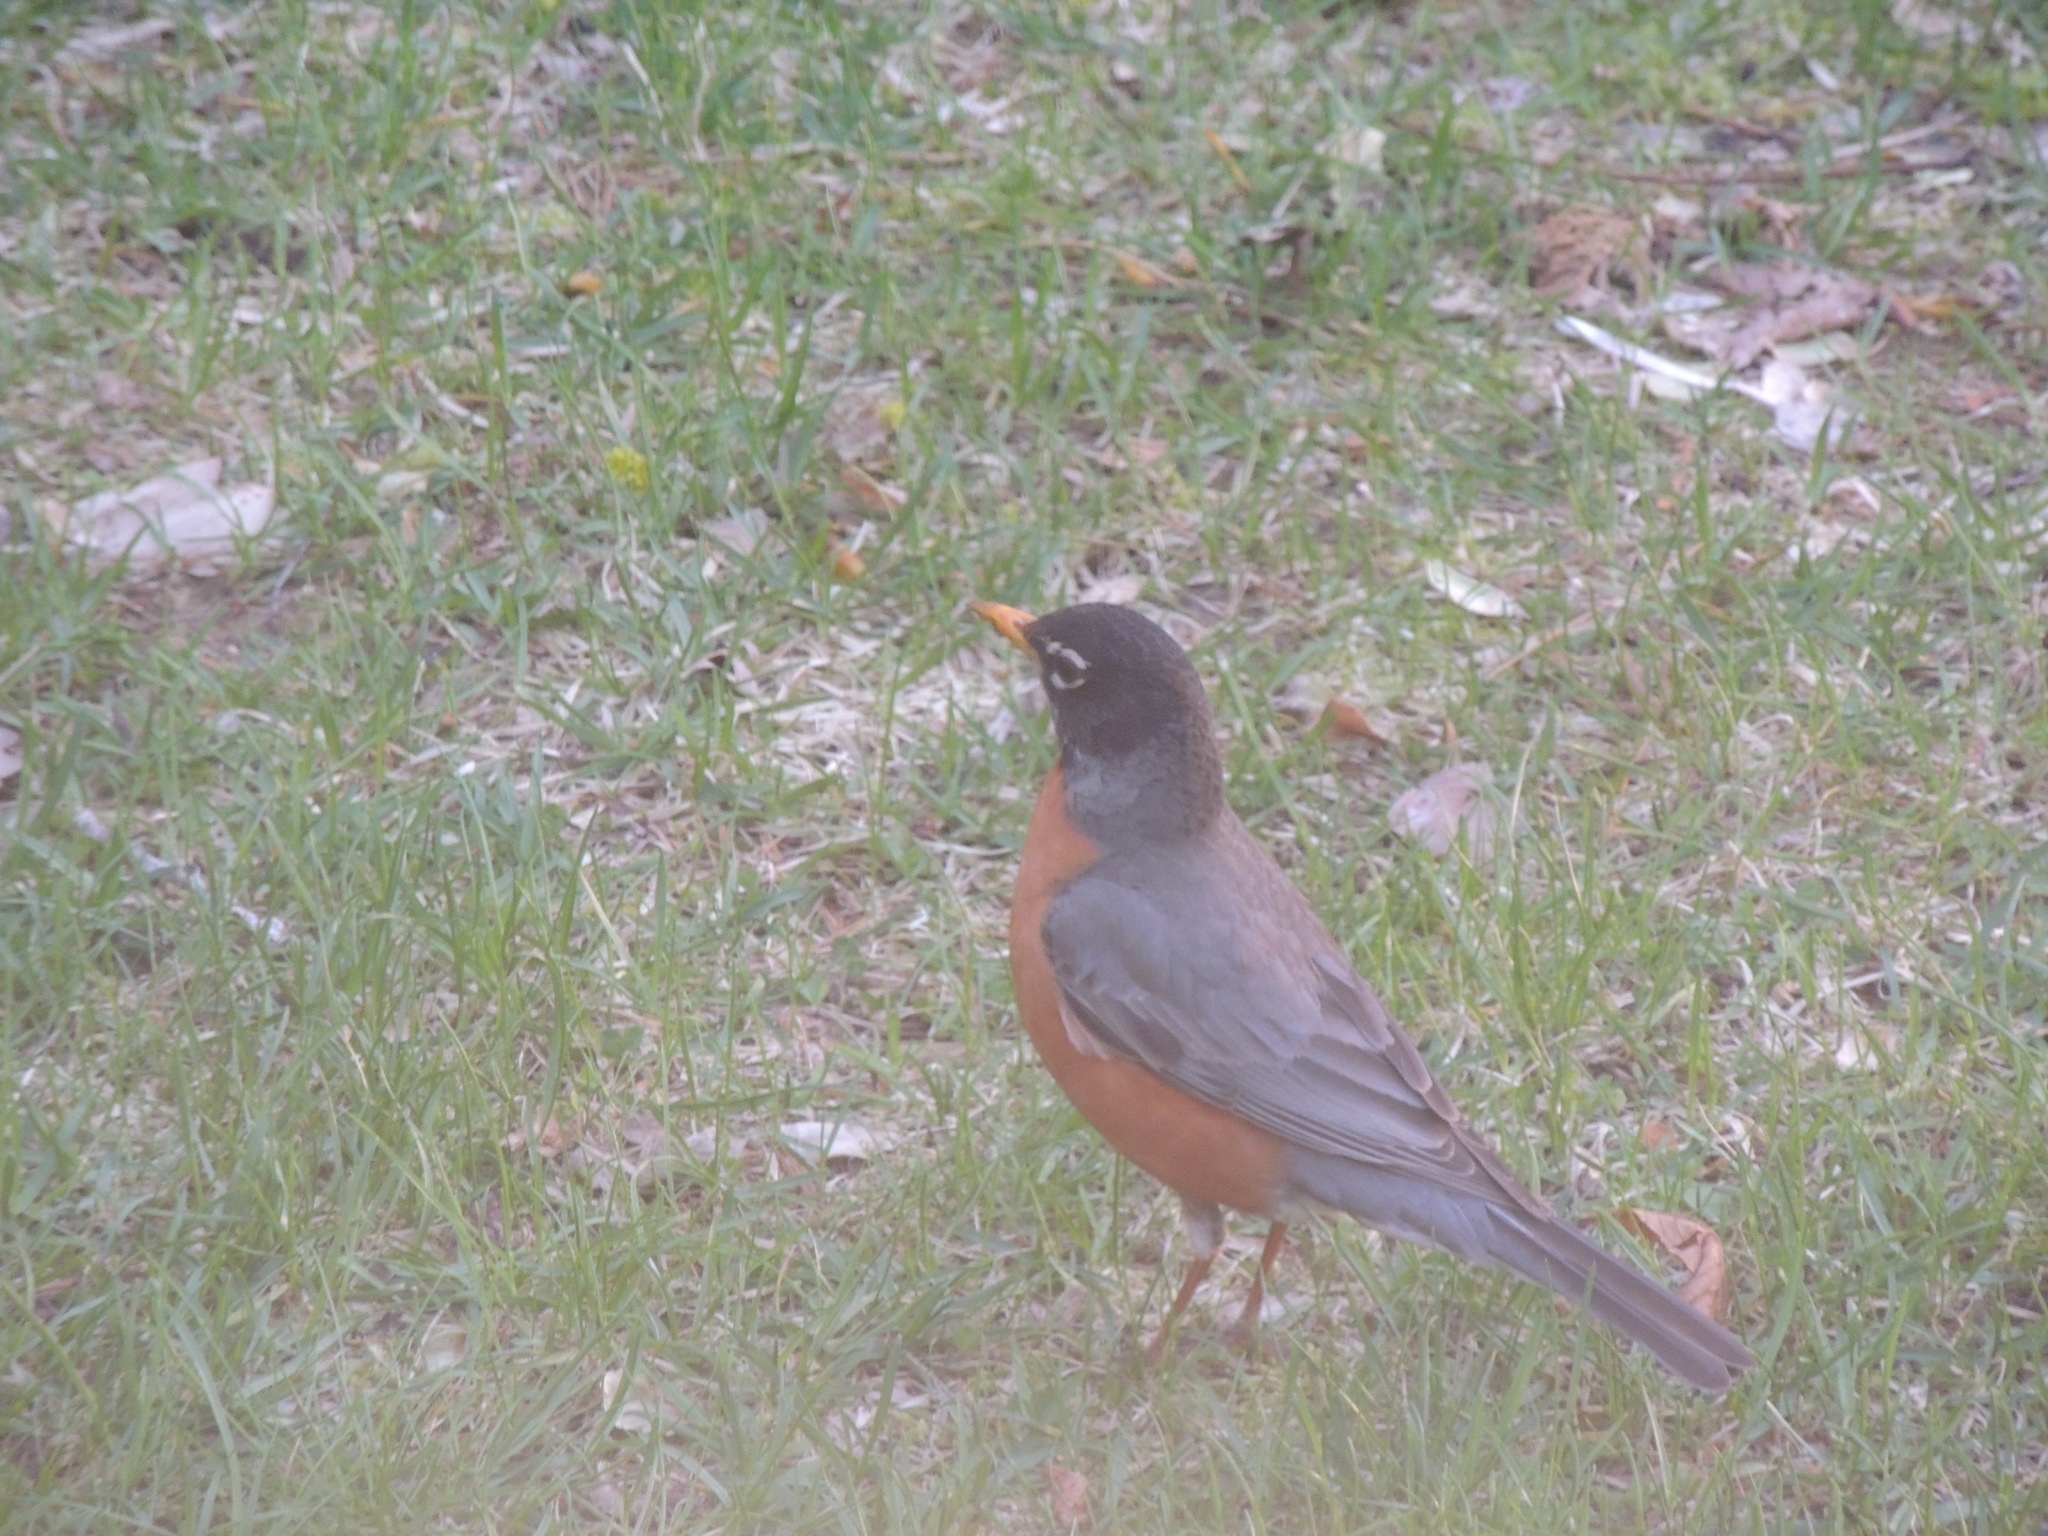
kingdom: Animalia
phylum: Chordata
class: Aves
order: Passeriformes
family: Turdidae
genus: Turdus
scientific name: Turdus migratorius
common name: American robin
